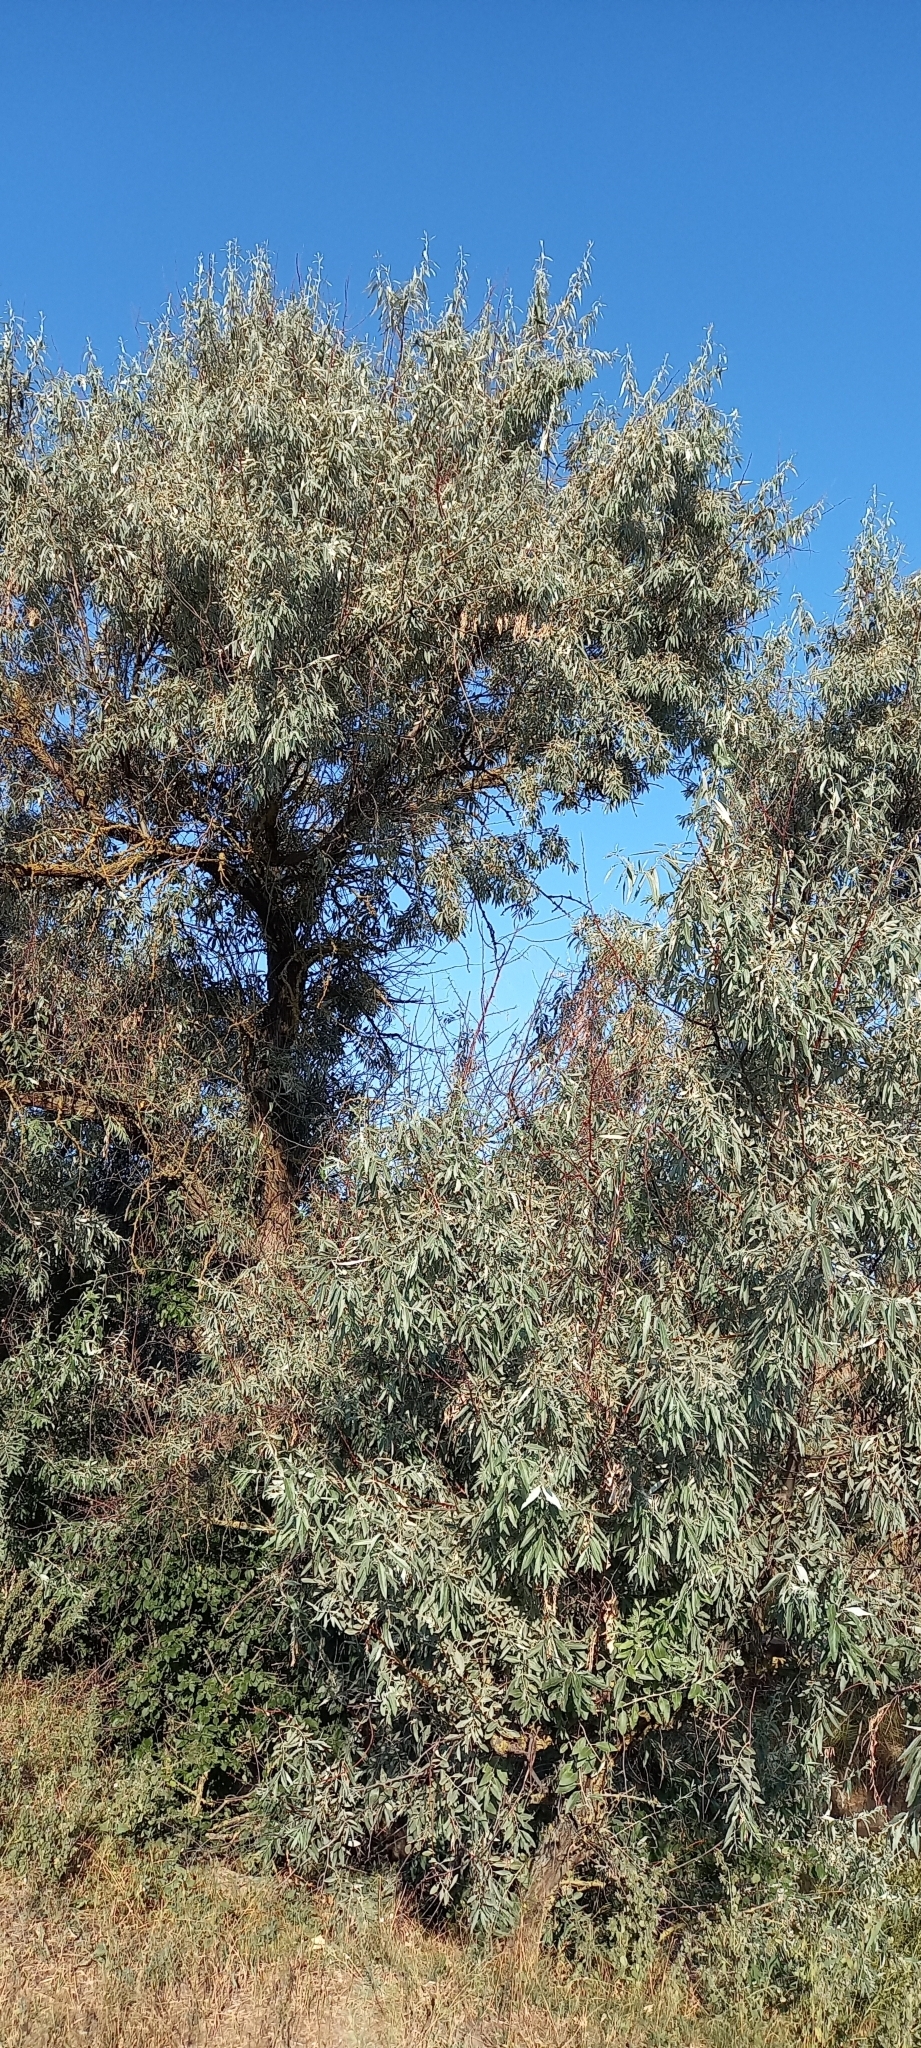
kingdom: Plantae
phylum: Tracheophyta
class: Magnoliopsida
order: Rosales
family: Elaeagnaceae
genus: Elaeagnus
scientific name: Elaeagnus angustifolia
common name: Russian olive
